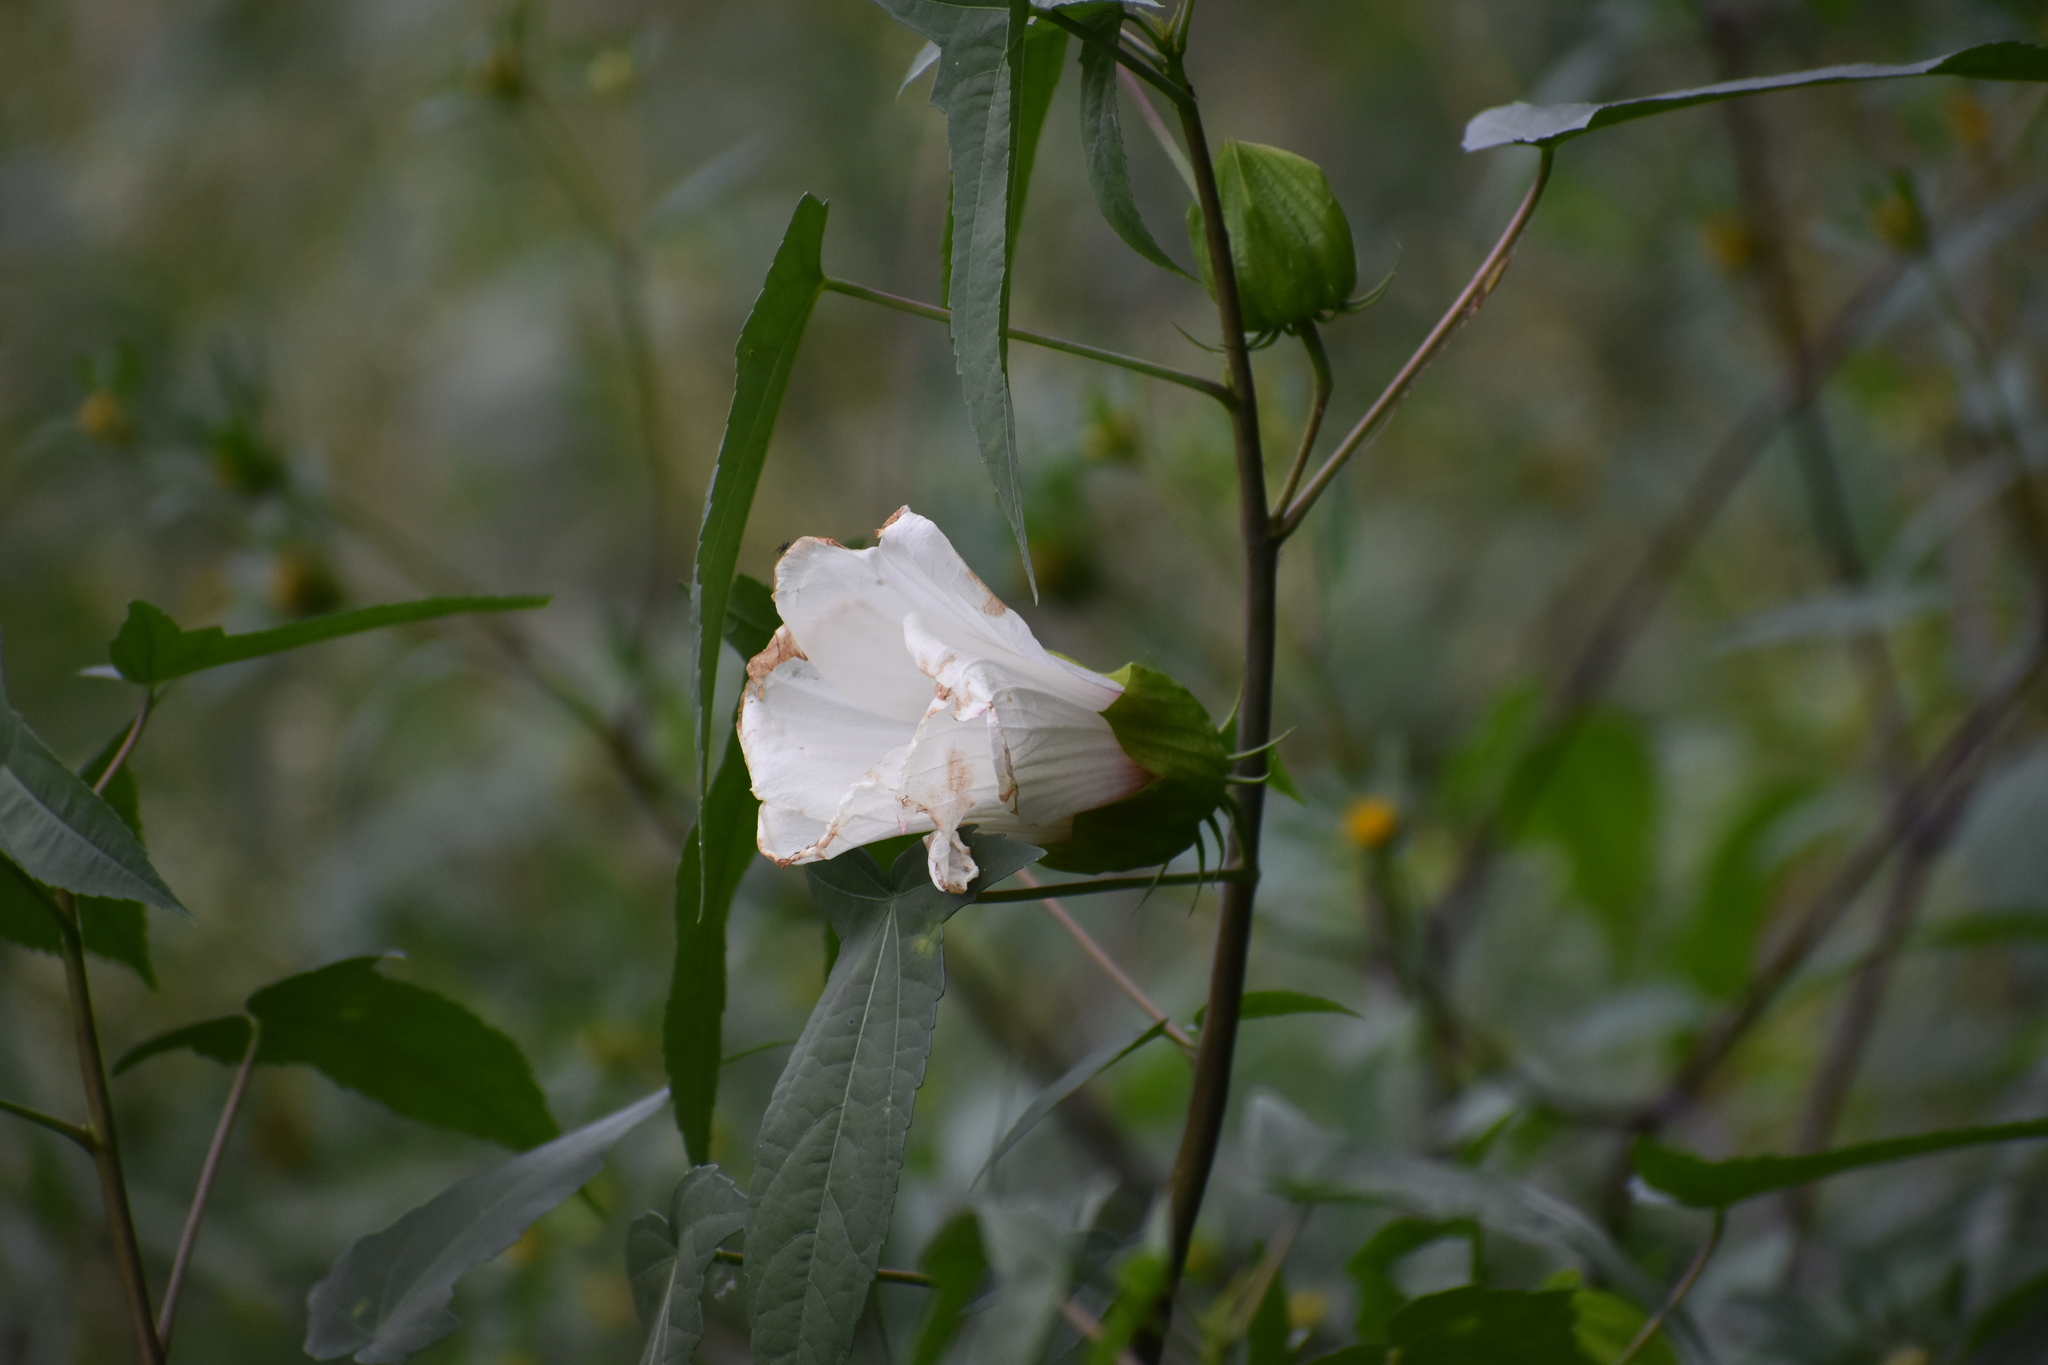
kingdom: Plantae
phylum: Tracheophyta
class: Magnoliopsida
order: Malvales
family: Malvaceae
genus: Hibiscus
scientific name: Hibiscus laevis
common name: Scarlet rose-mallow
